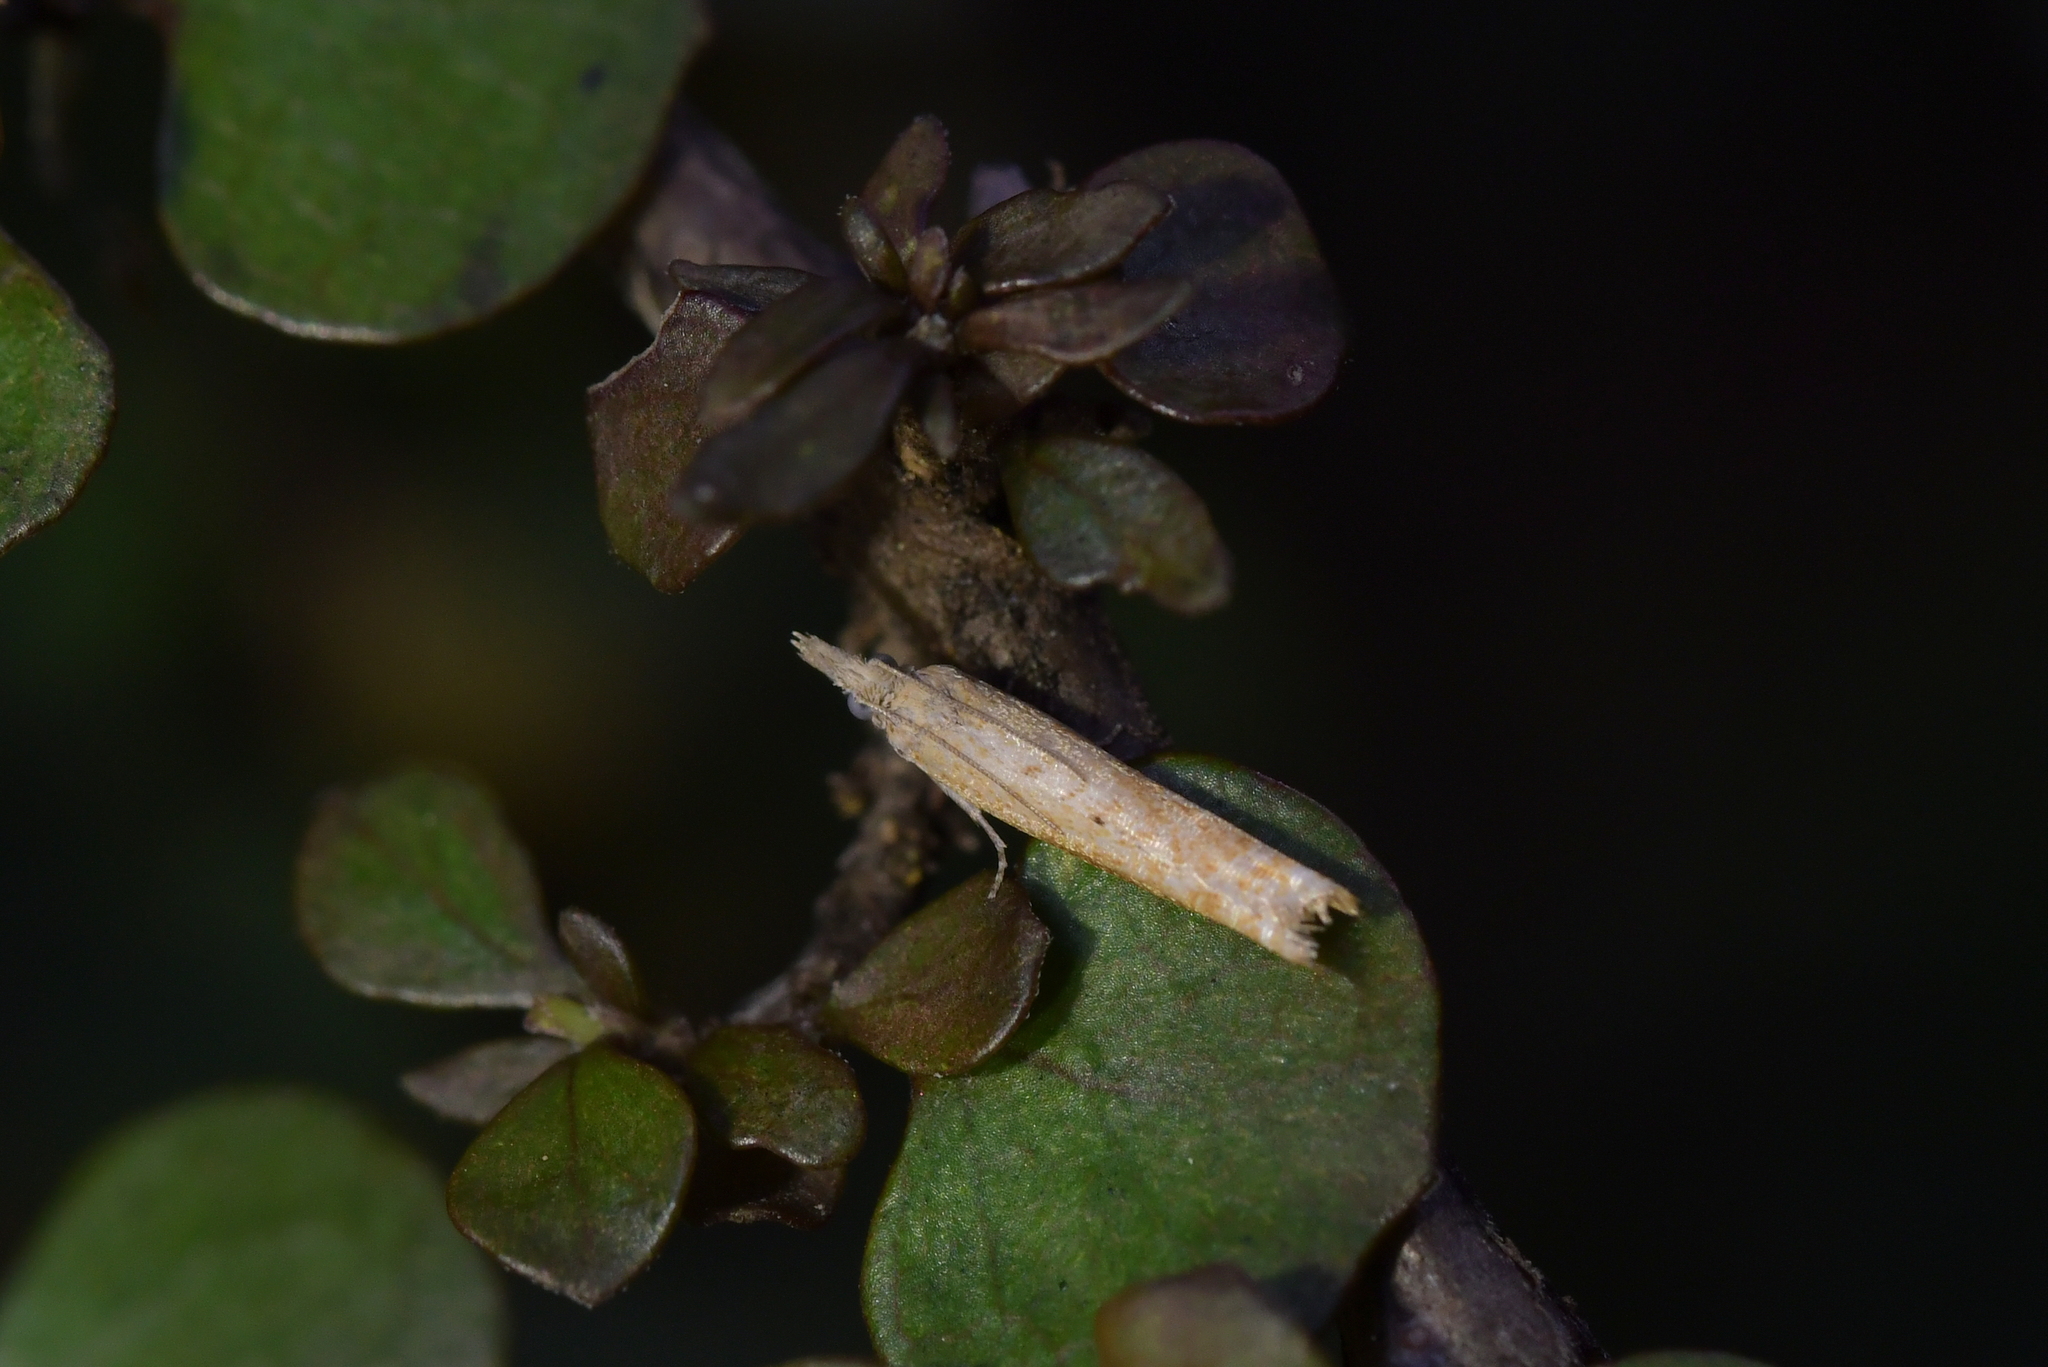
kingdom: Animalia
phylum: Arthropoda
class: Insecta
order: Lepidoptera
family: Tortricidae
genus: Holocola
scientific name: Holocola
